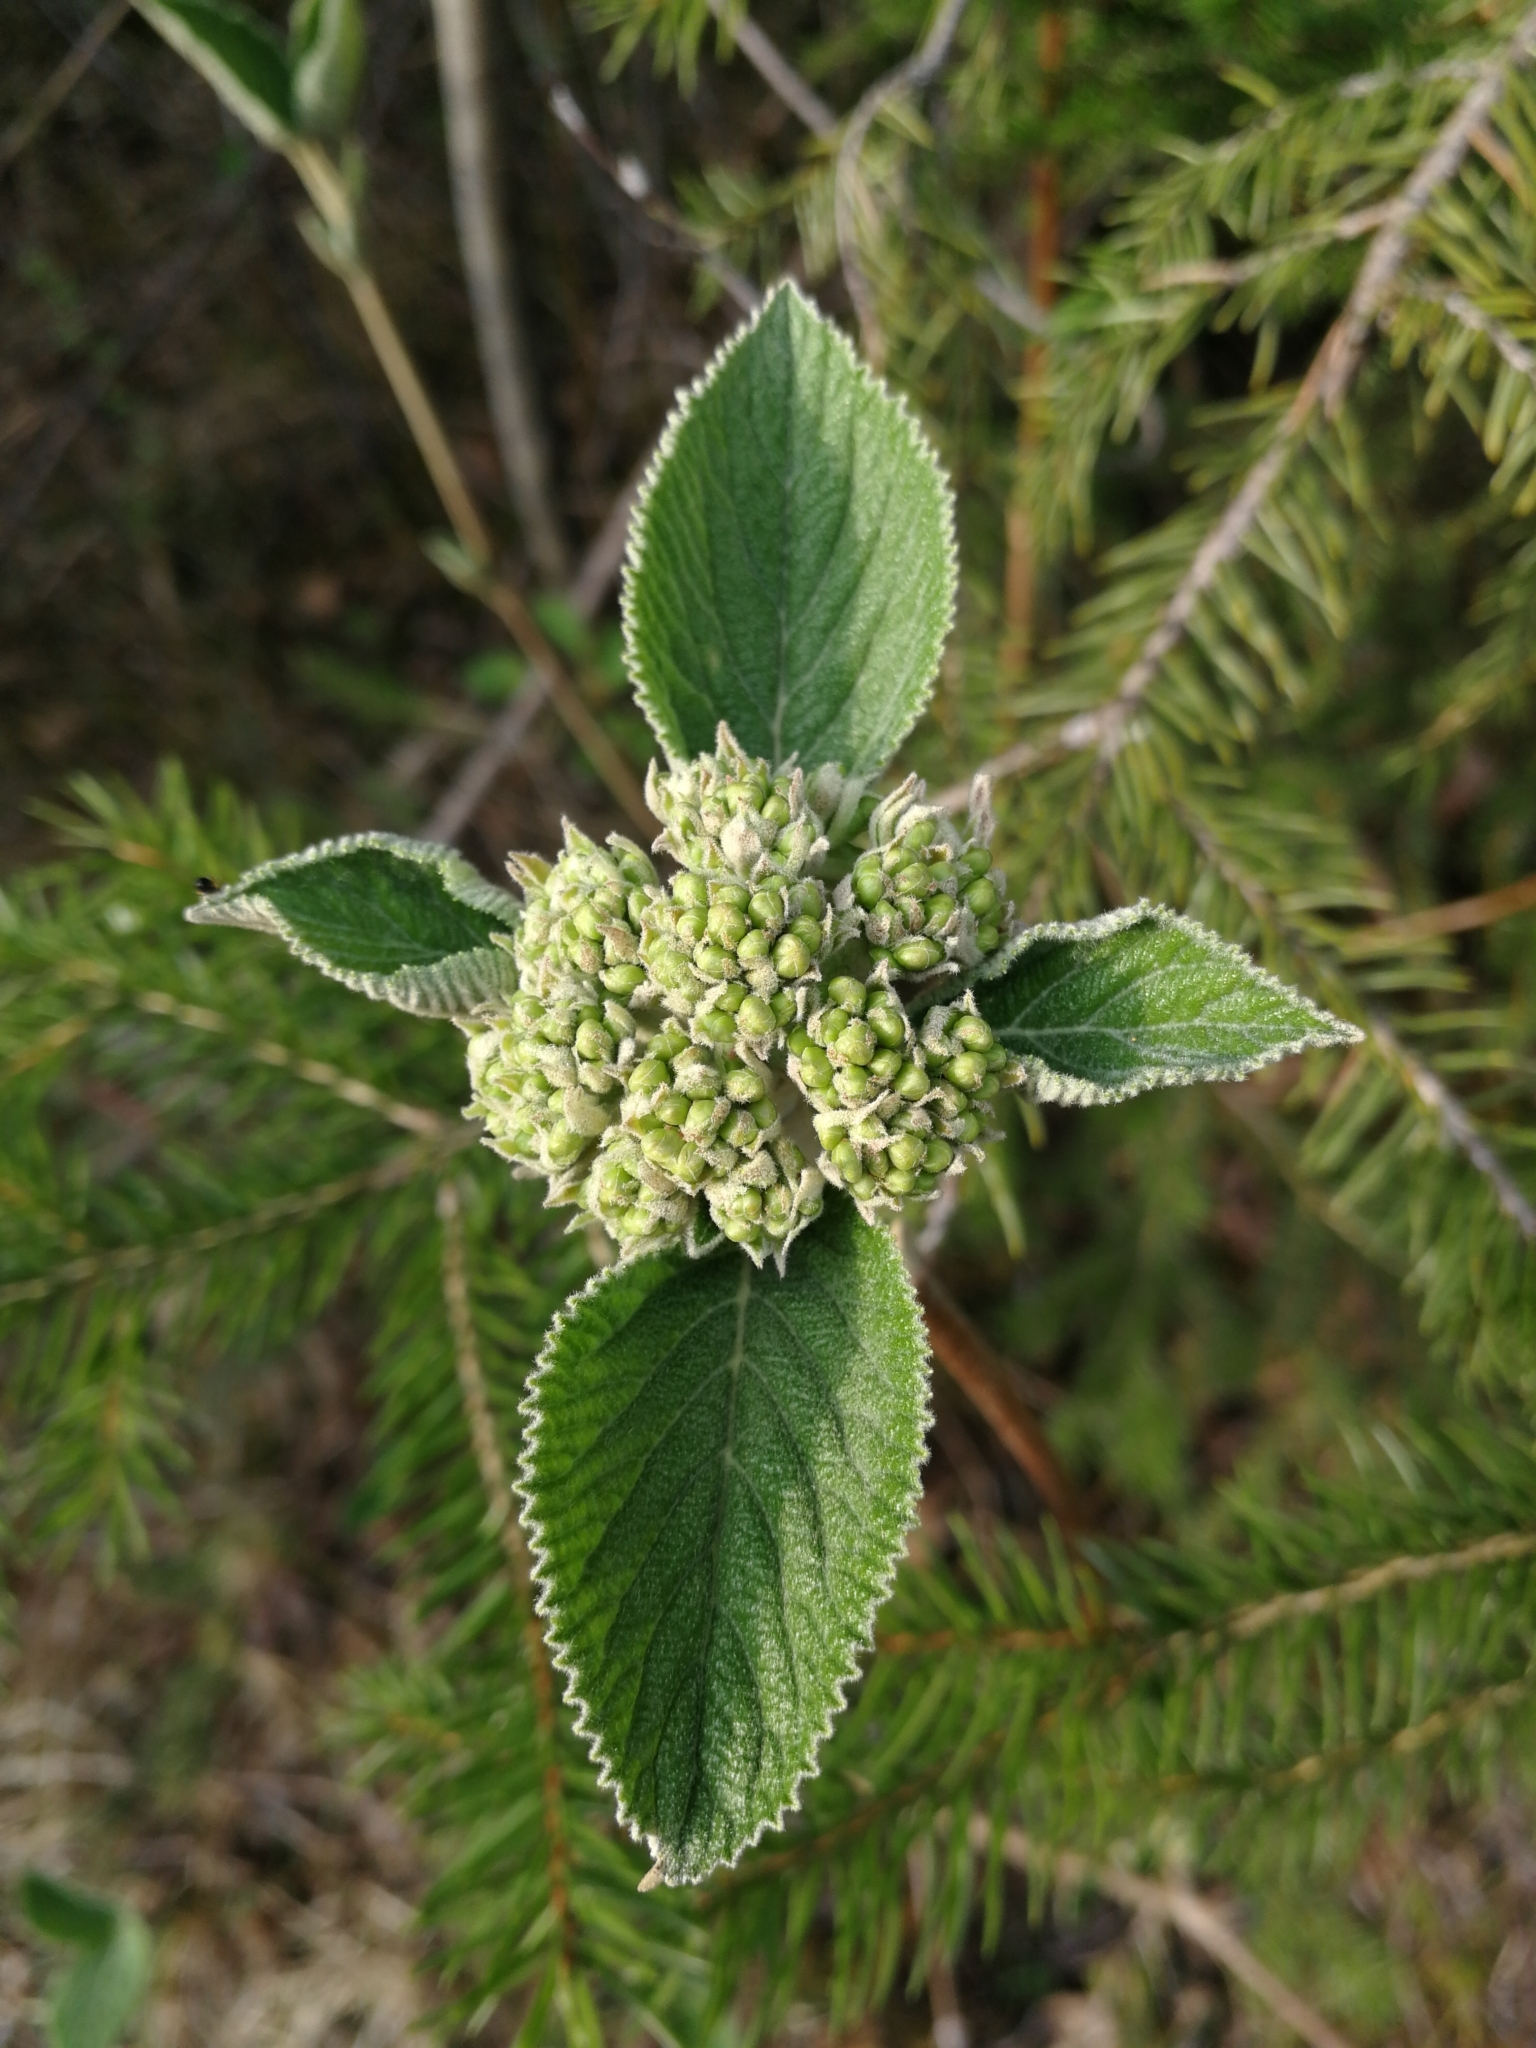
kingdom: Plantae
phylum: Tracheophyta
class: Magnoliopsida
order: Dipsacales
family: Viburnaceae
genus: Viburnum
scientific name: Viburnum lantana
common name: Wayfaring tree
